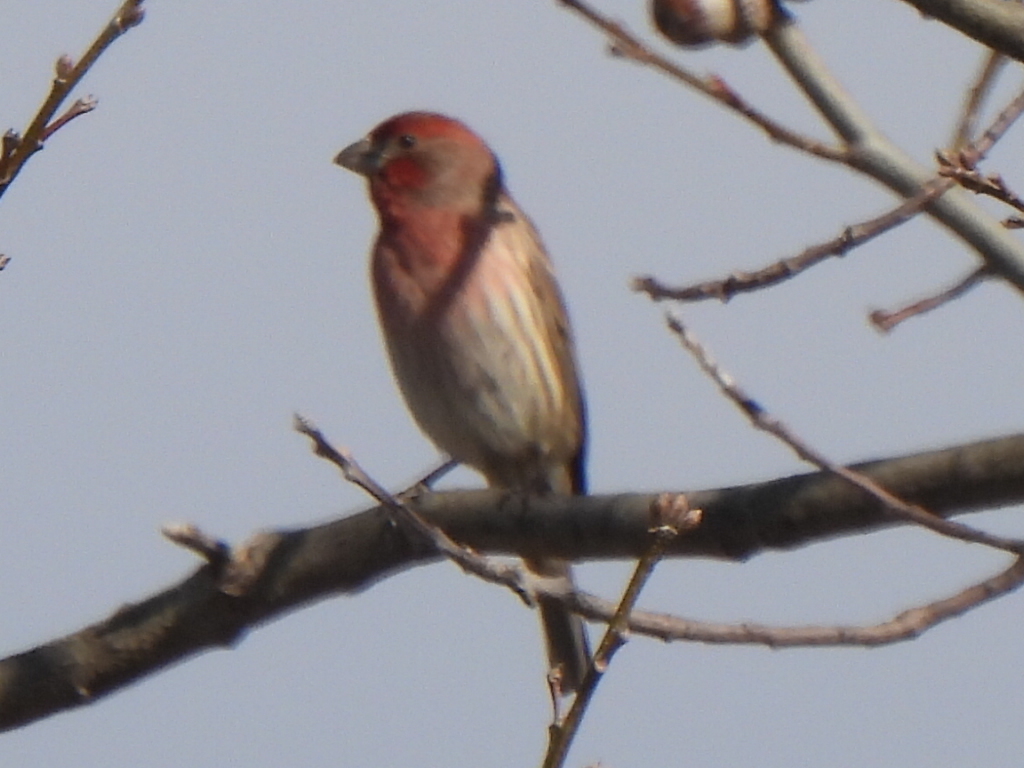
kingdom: Animalia
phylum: Chordata
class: Aves
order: Passeriformes
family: Fringillidae
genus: Haemorhous
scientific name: Haemorhous mexicanus
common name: House finch
